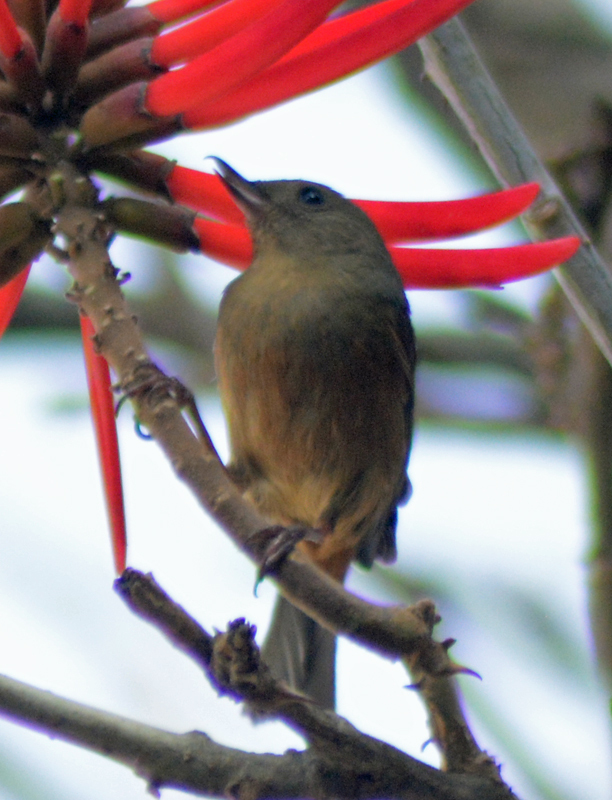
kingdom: Animalia
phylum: Chordata
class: Aves
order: Passeriformes
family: Thraupidae
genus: Diglossa
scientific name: Diglossa baritula
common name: Cinnamon-bellied flowerpiercer
